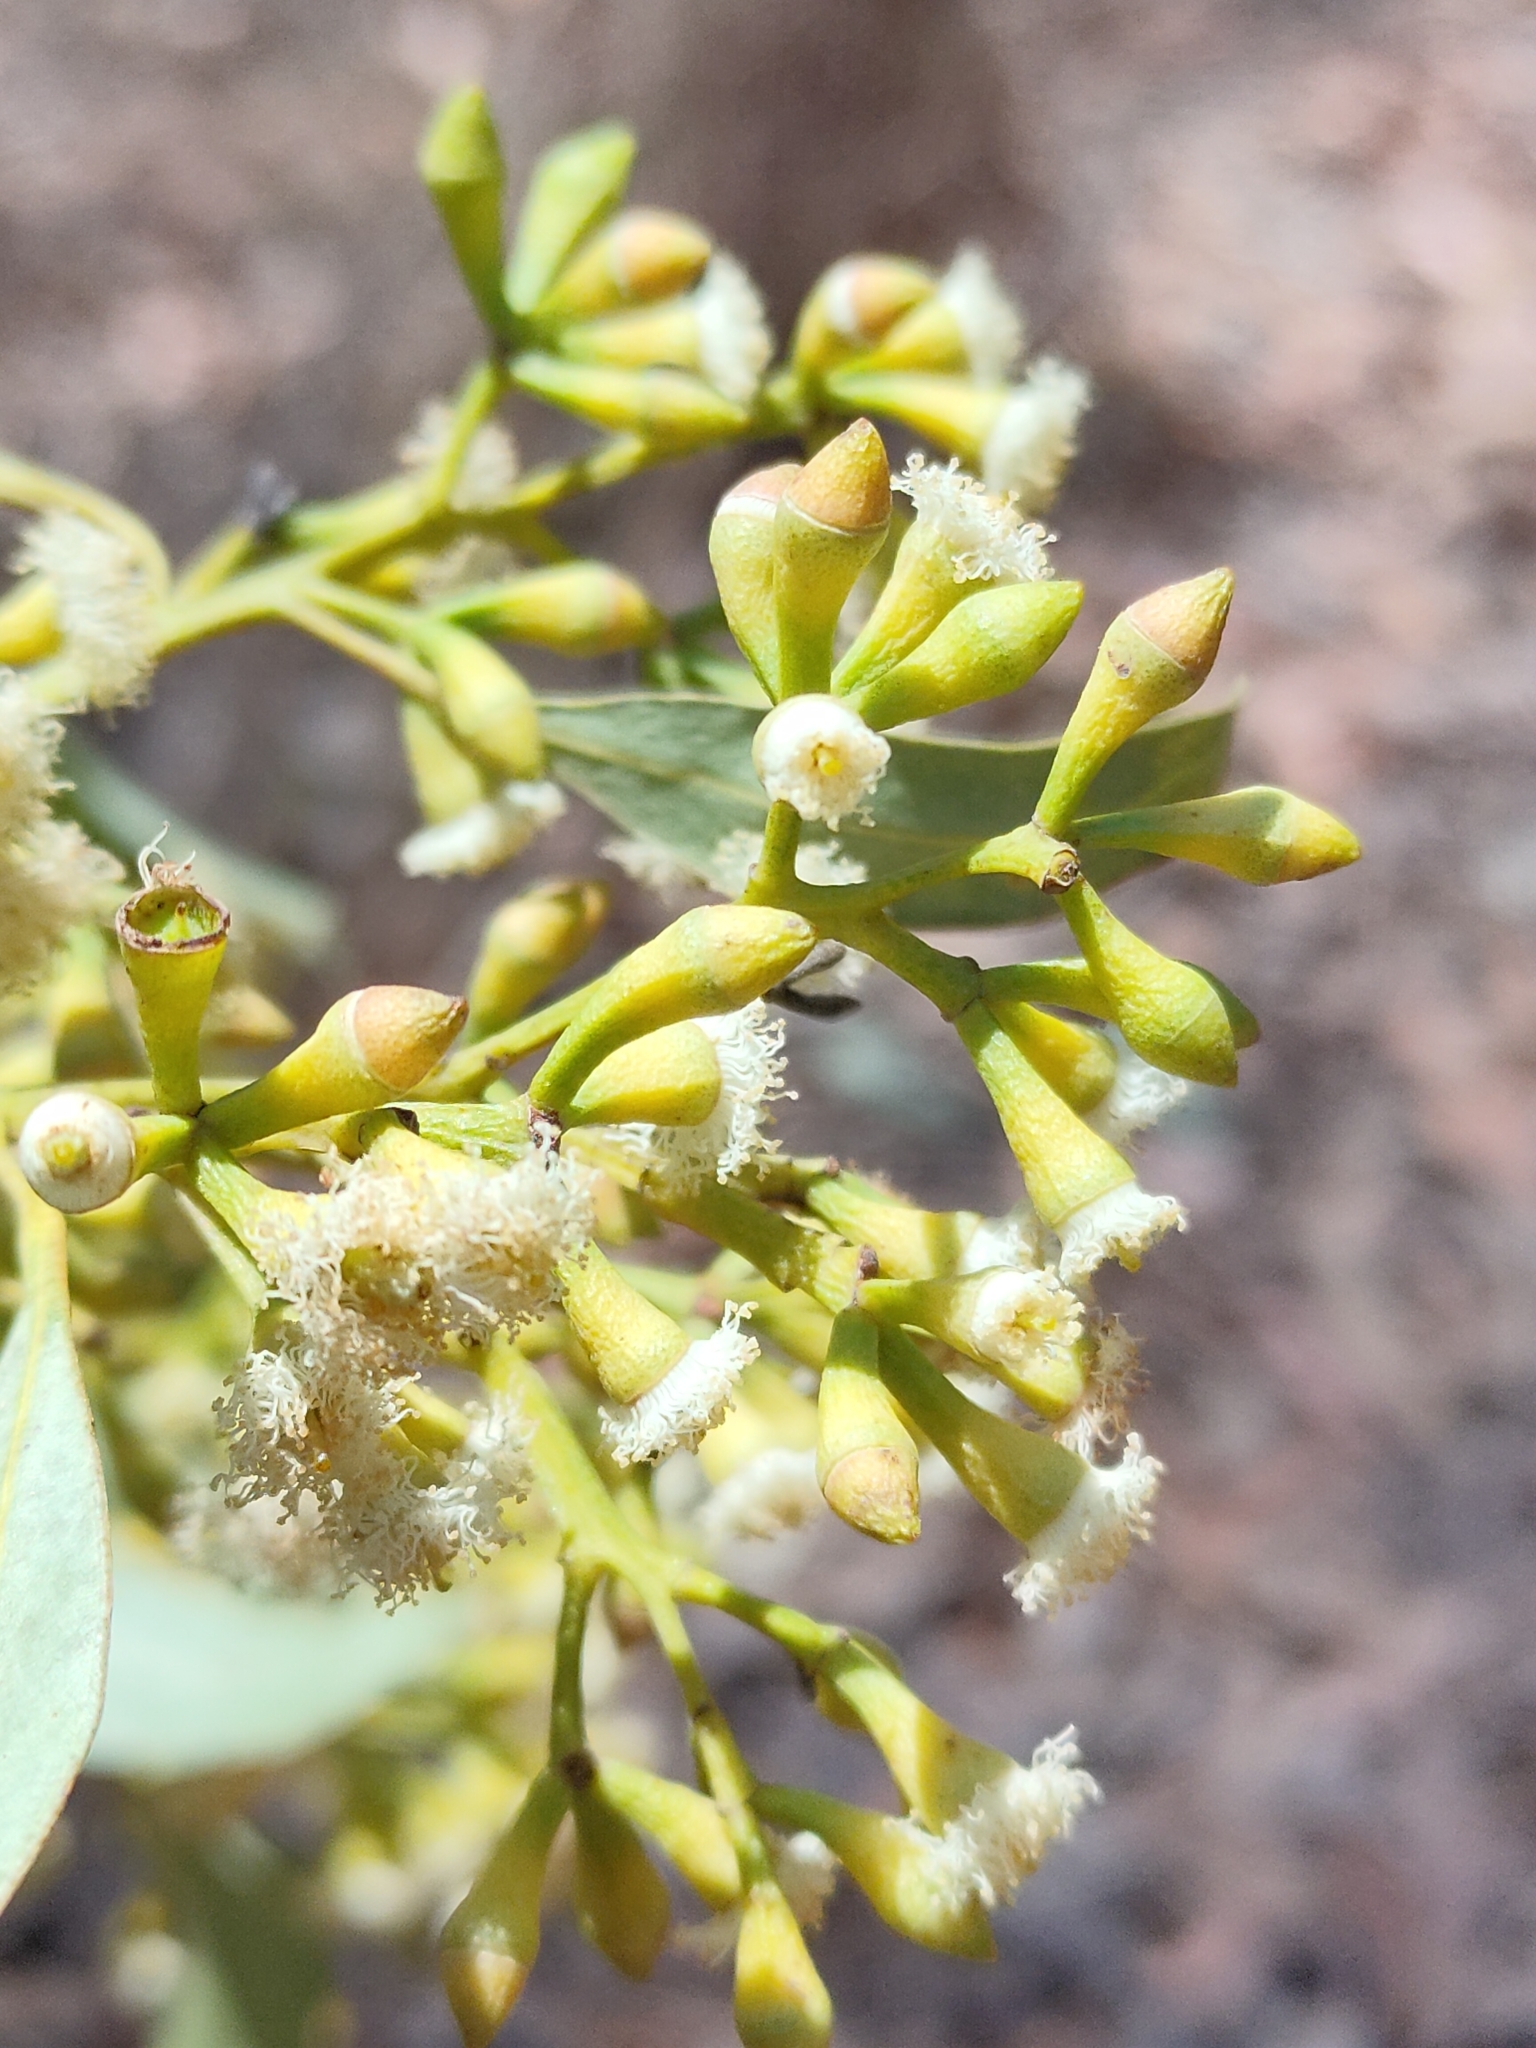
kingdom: Plantae
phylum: Tracheophyta
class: Magnoliopsida
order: Myrtales
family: Myrtaceae
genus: Eucalyptus
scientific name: Eucalyptus siderophloia
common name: Broad-leafed-ironbark
